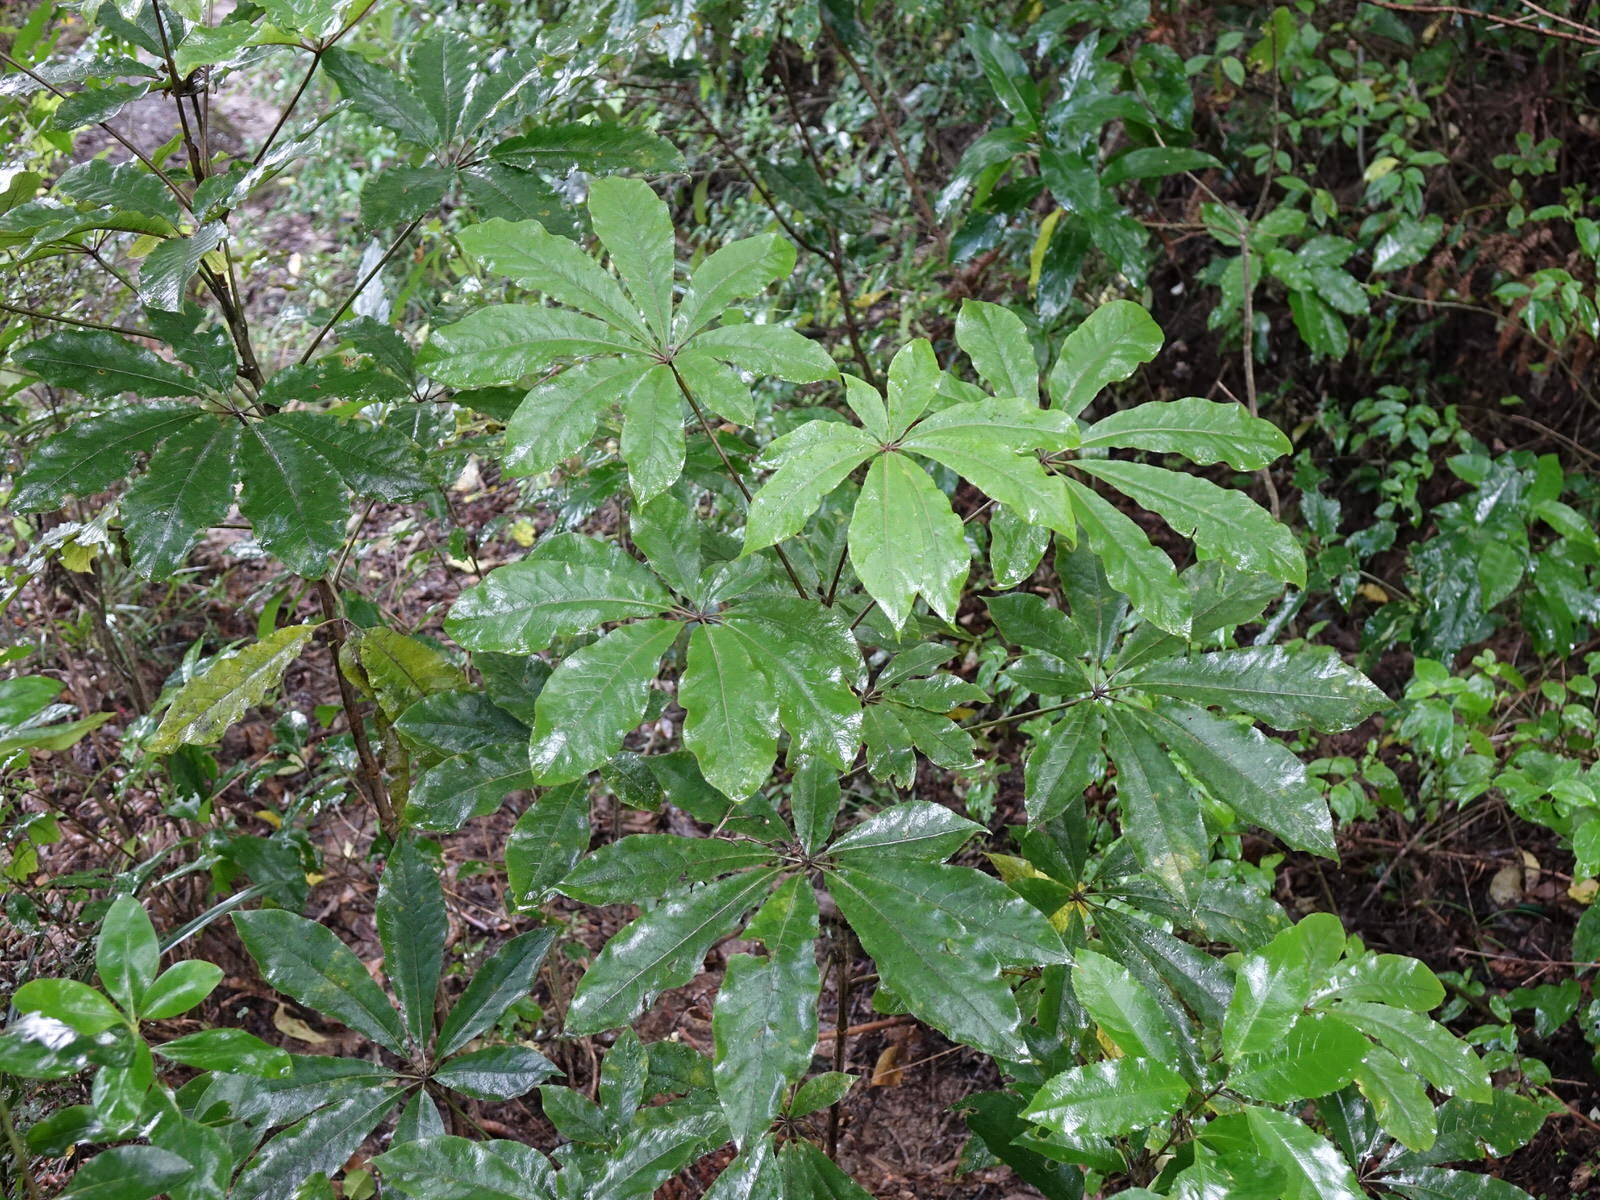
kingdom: Plantae
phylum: Tracheophyta
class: Magnoliopsida
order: Apiales
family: Araliaceae
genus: Schefflera
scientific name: Schefflera digitata
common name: Pate
